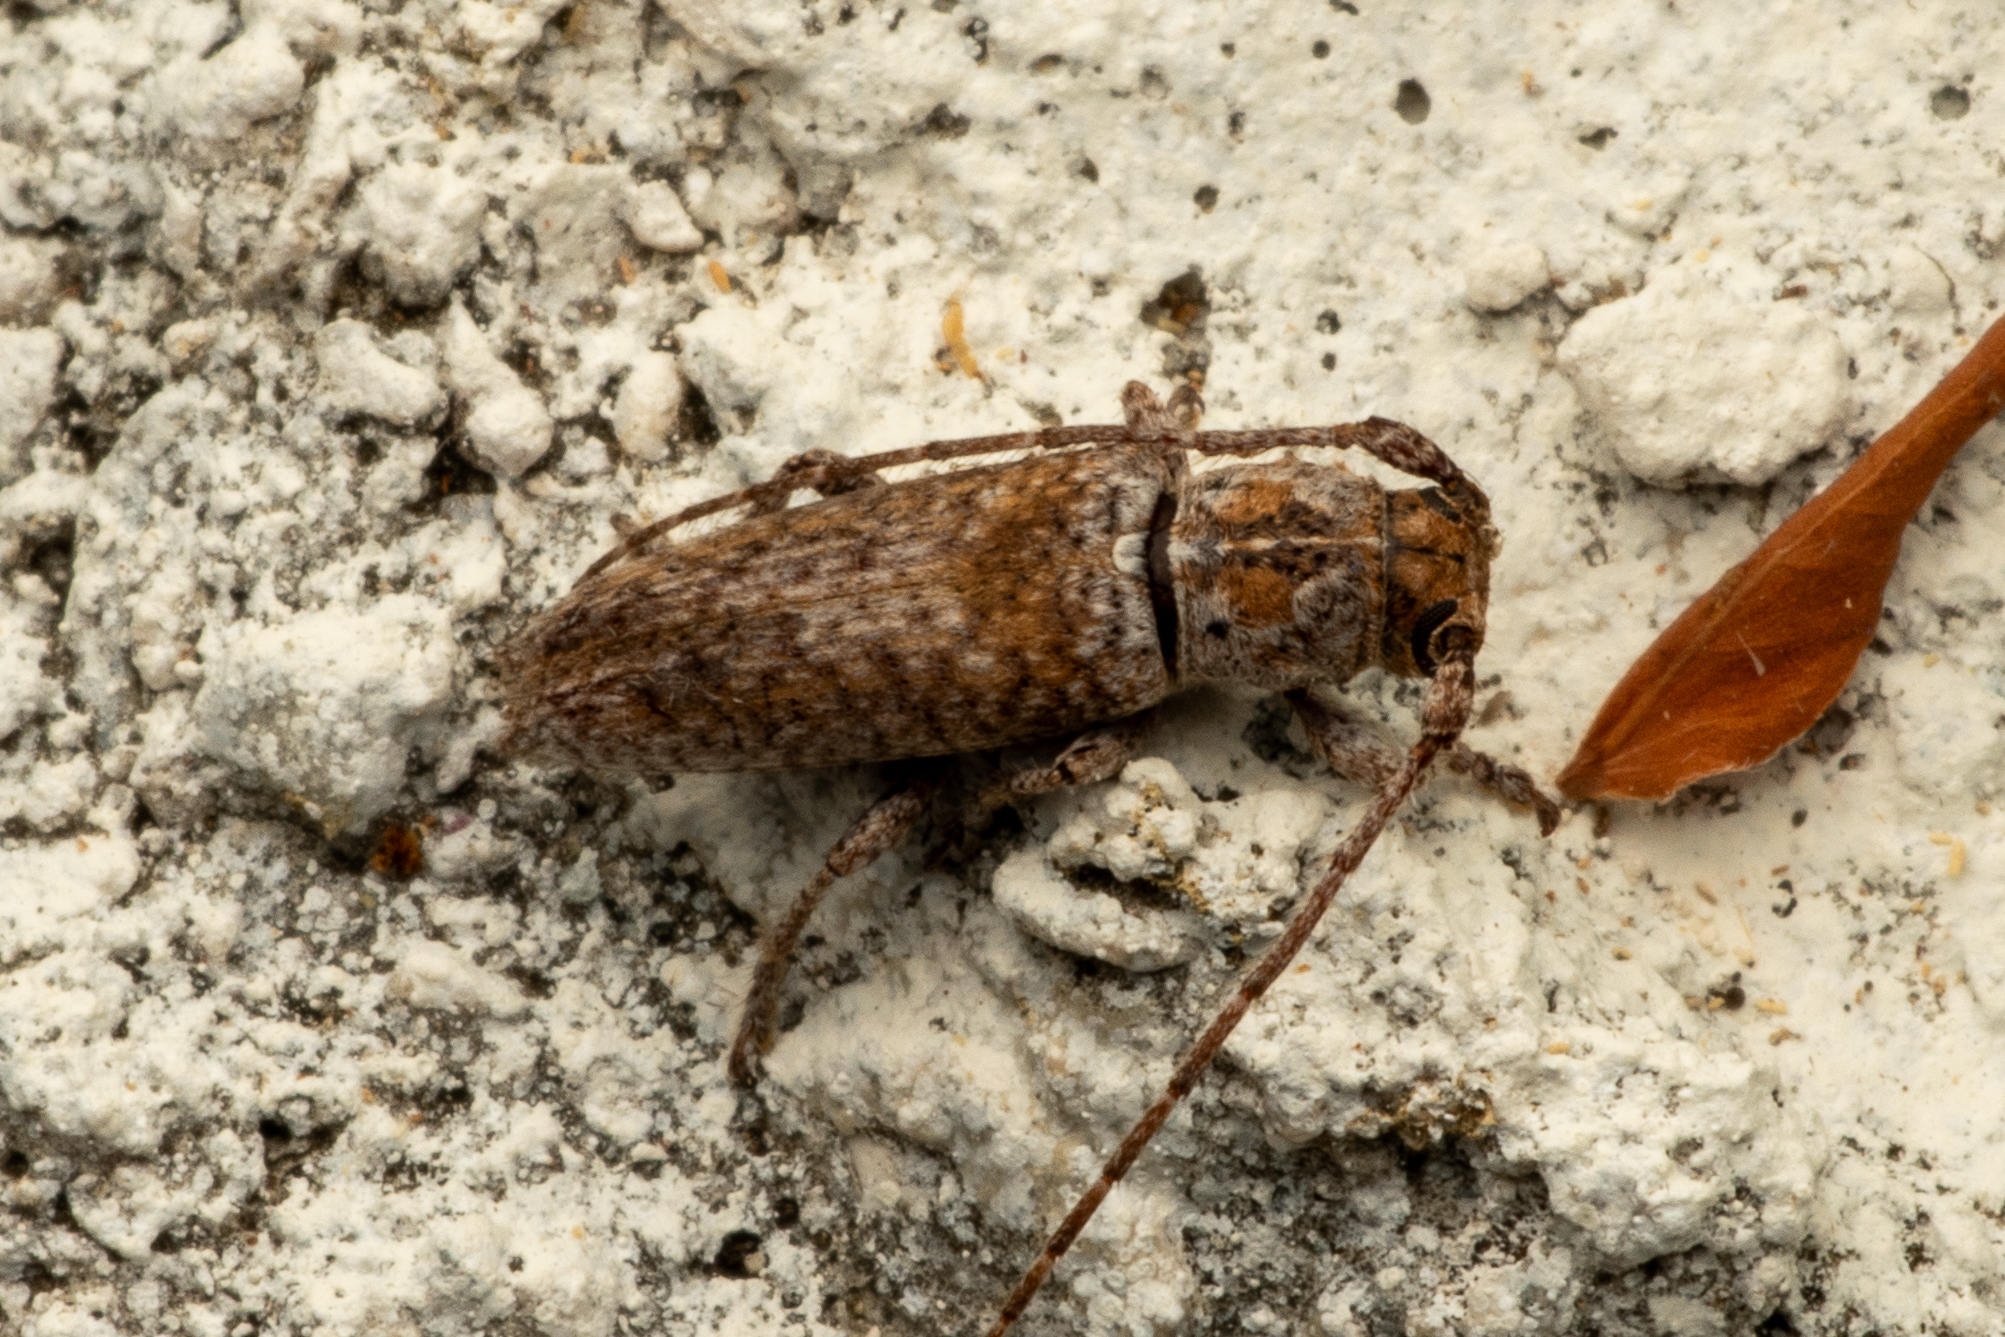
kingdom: Animalia
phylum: Arthropoda
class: Insecta
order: Coleoptera
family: Cerambycidae
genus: Ataxia
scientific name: Ataxia spinicauda
